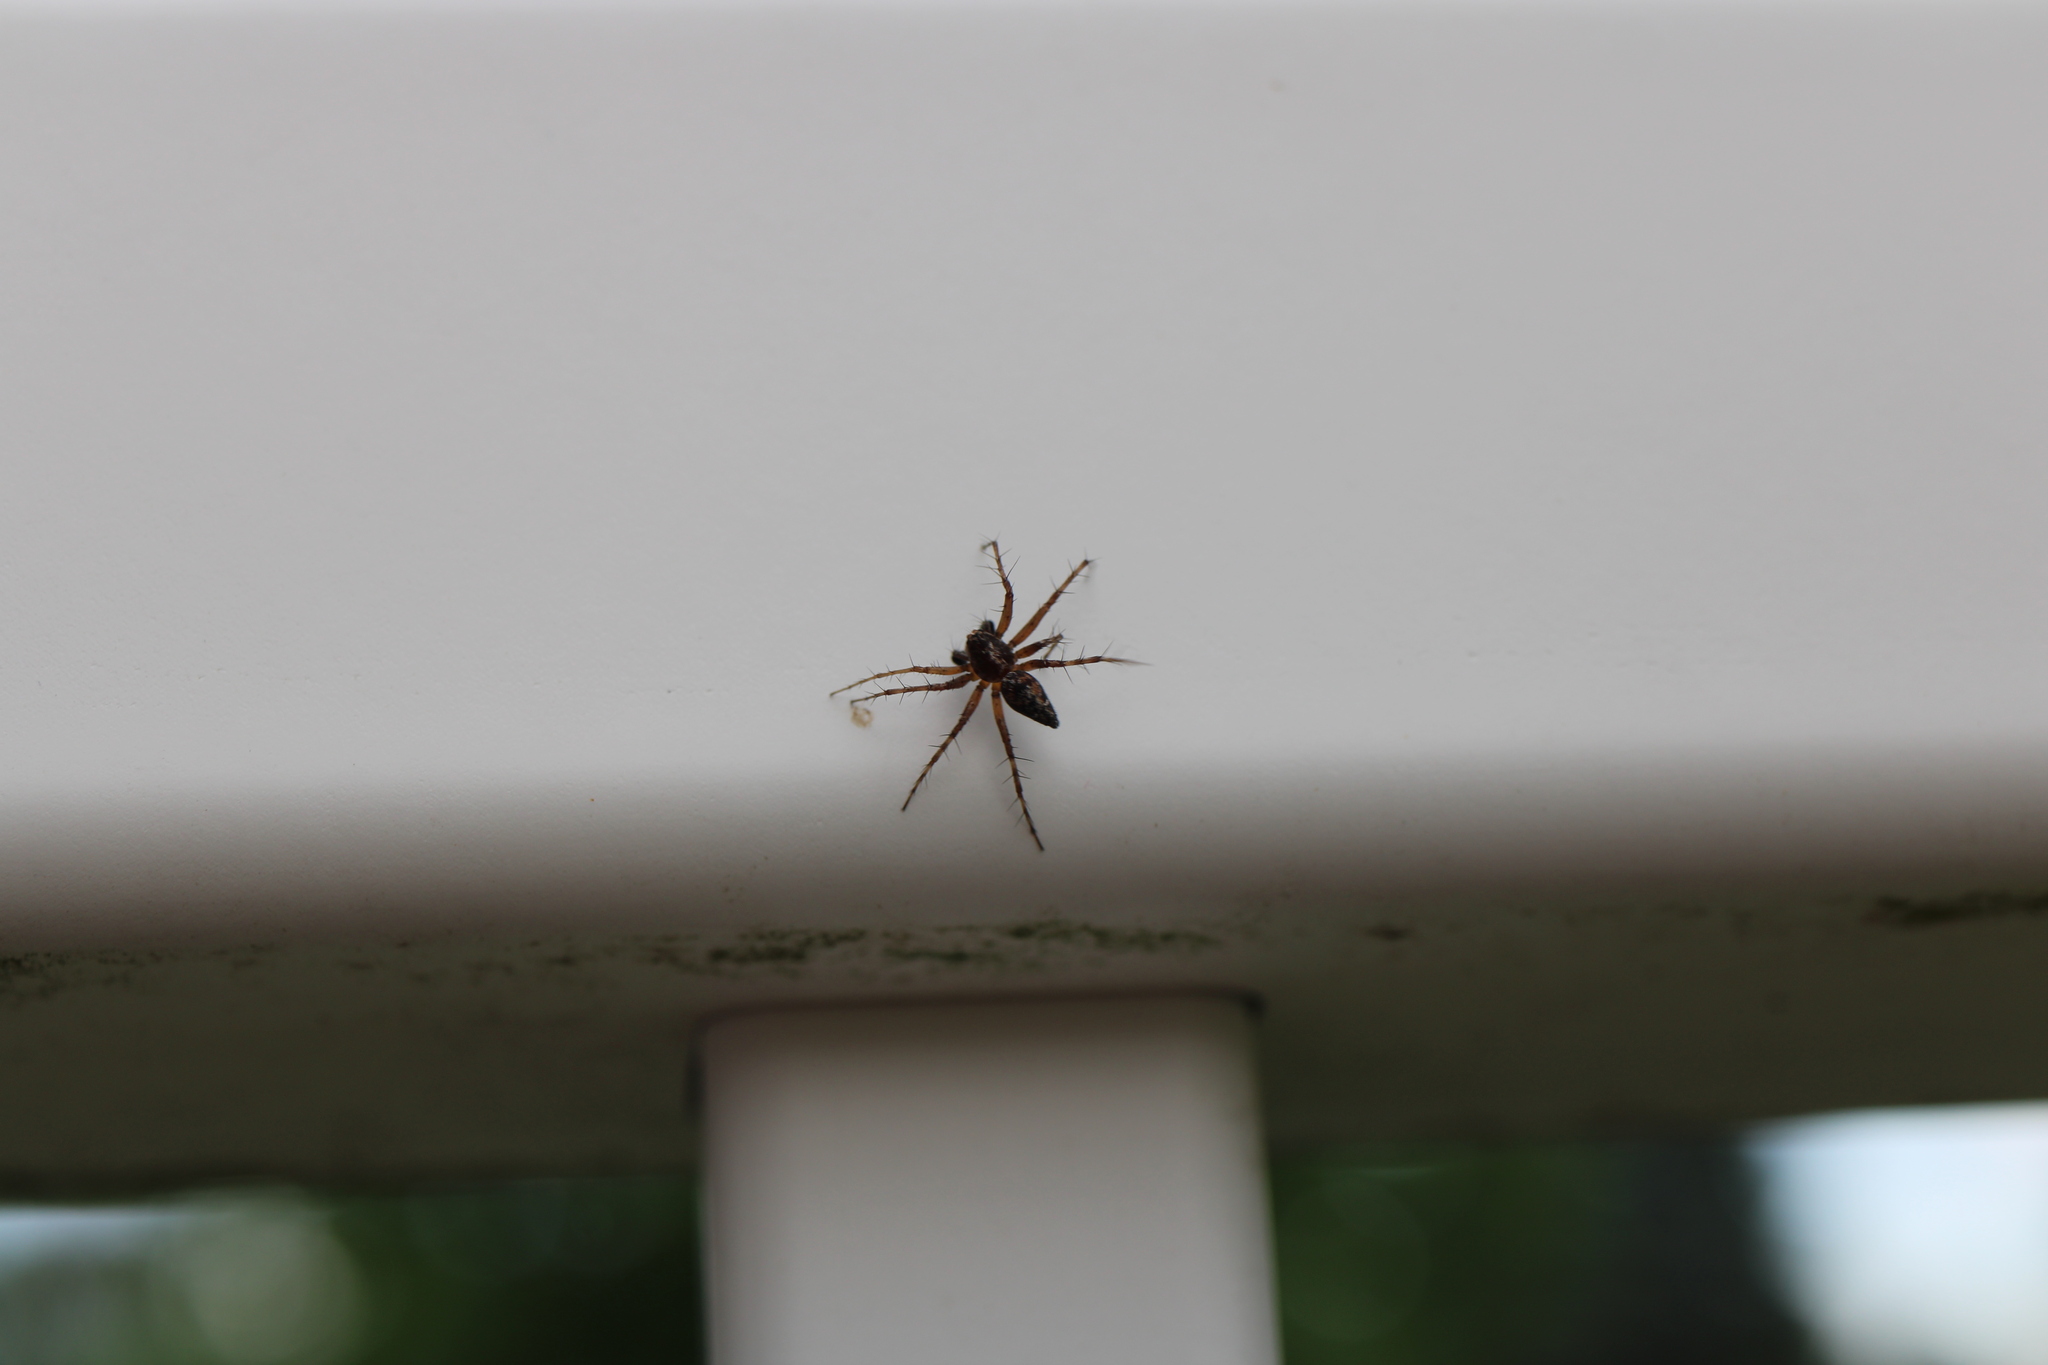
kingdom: Animalia
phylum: Arthropoda
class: Arachnida
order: Araneae
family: Oxyopidae
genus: Oxyopes
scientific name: Oxyopes scalaris
